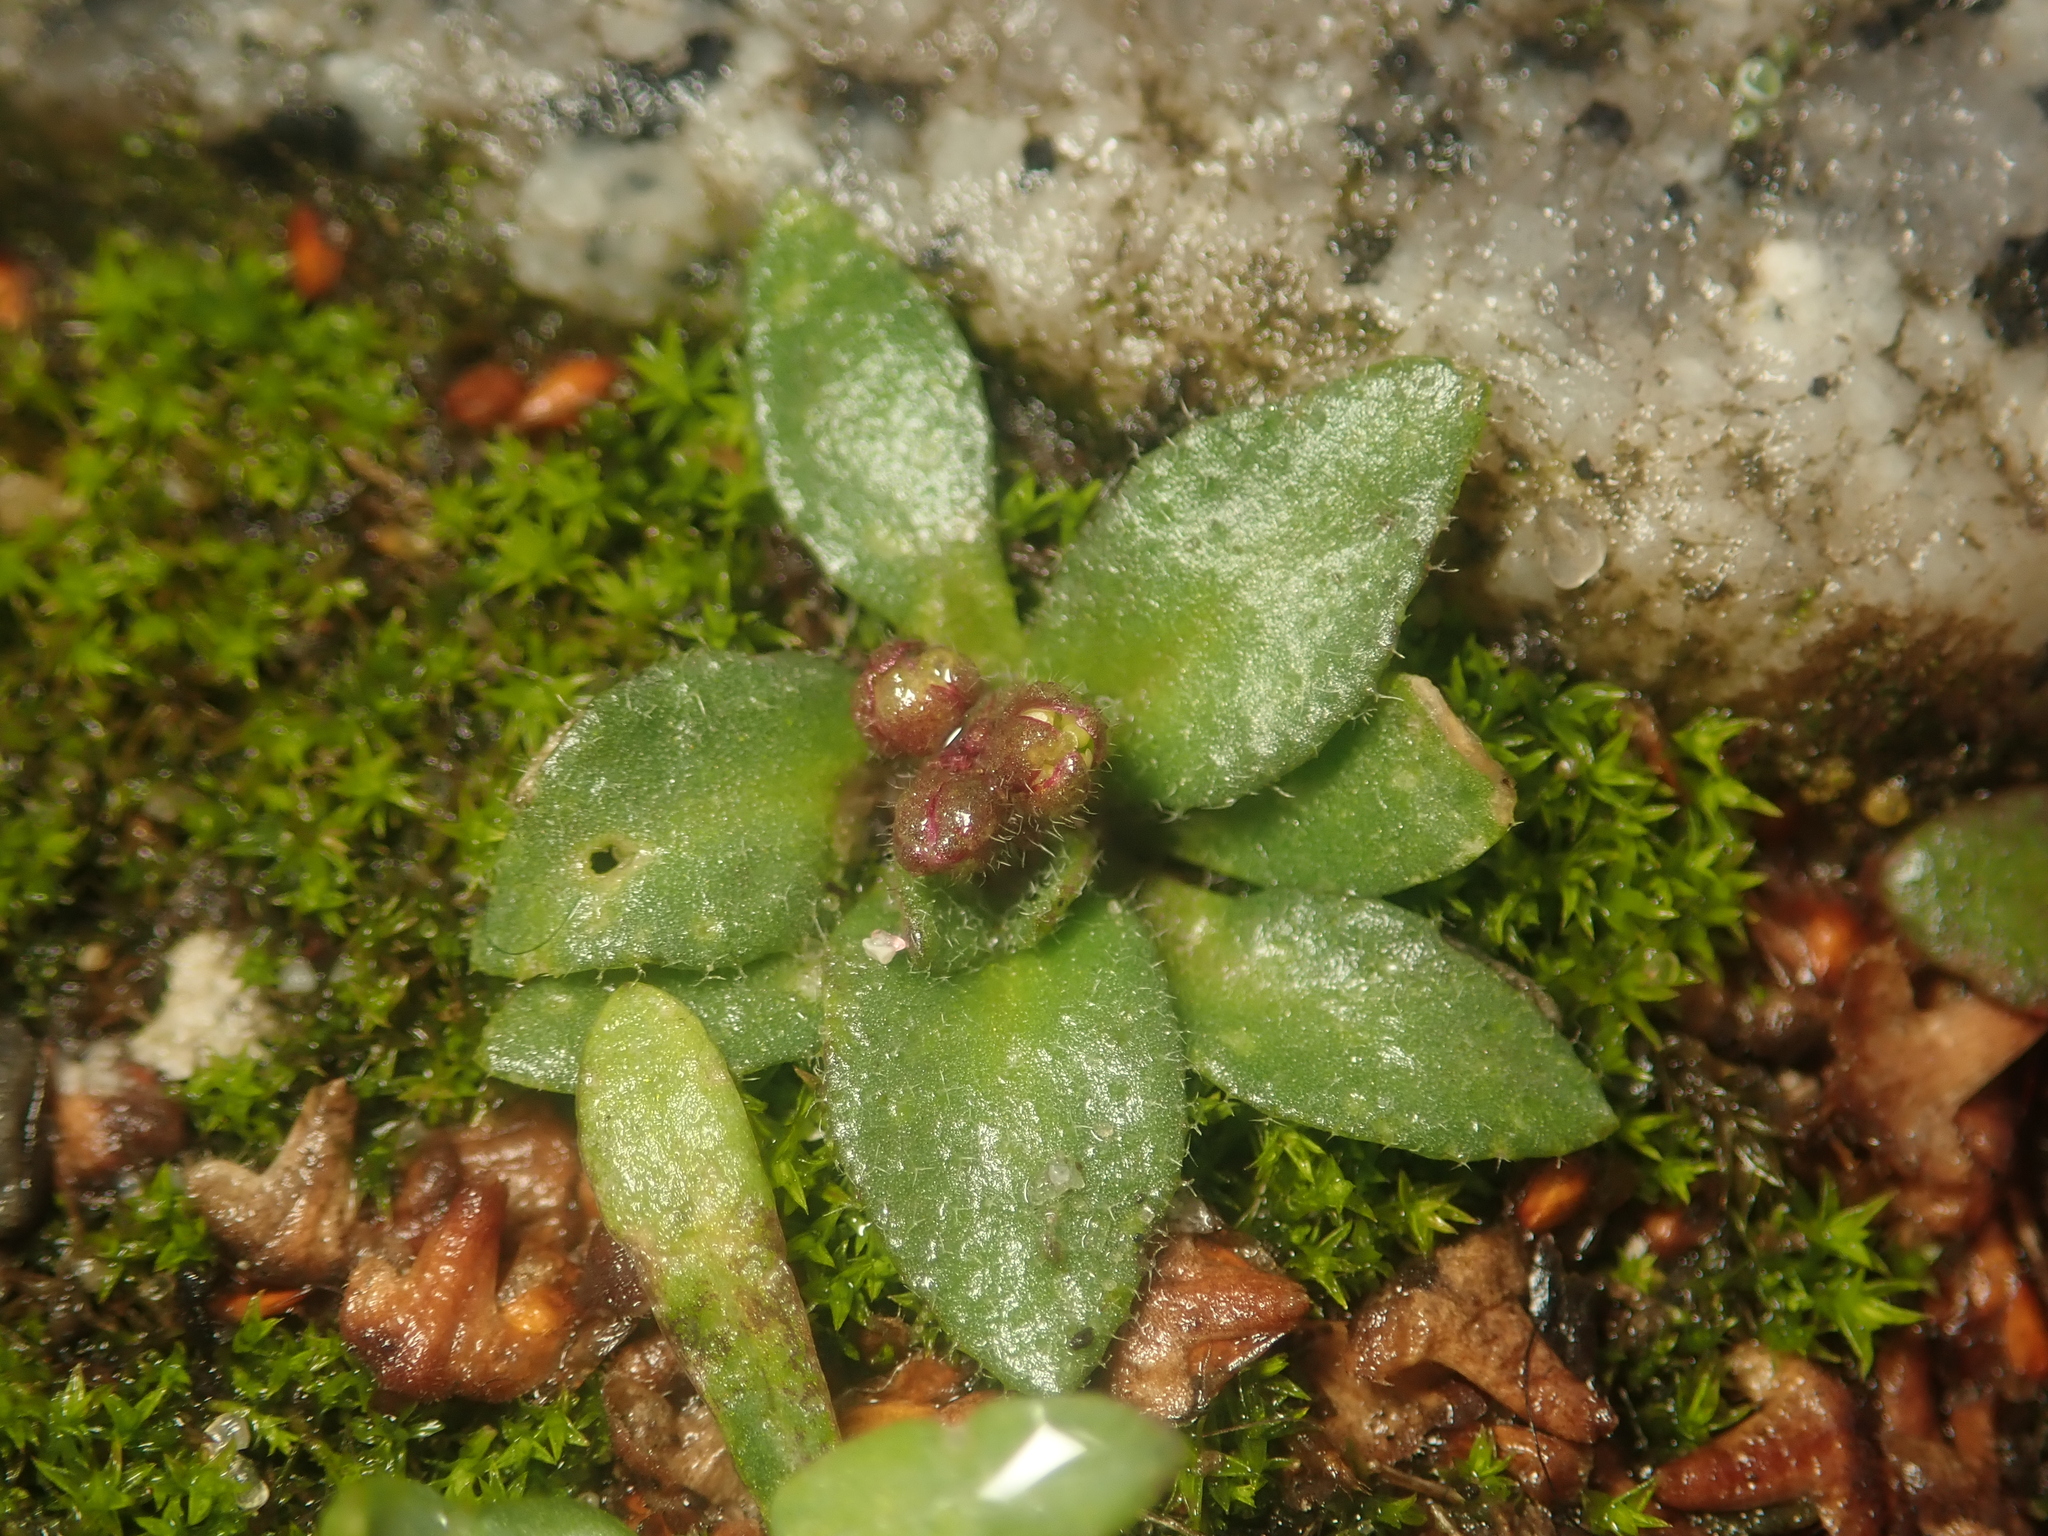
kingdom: Plantae
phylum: Tracheophyta
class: Magnoliopsida
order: Brassicales
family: Brassicaceae
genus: Draba
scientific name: Draba verna
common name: Spring draba
